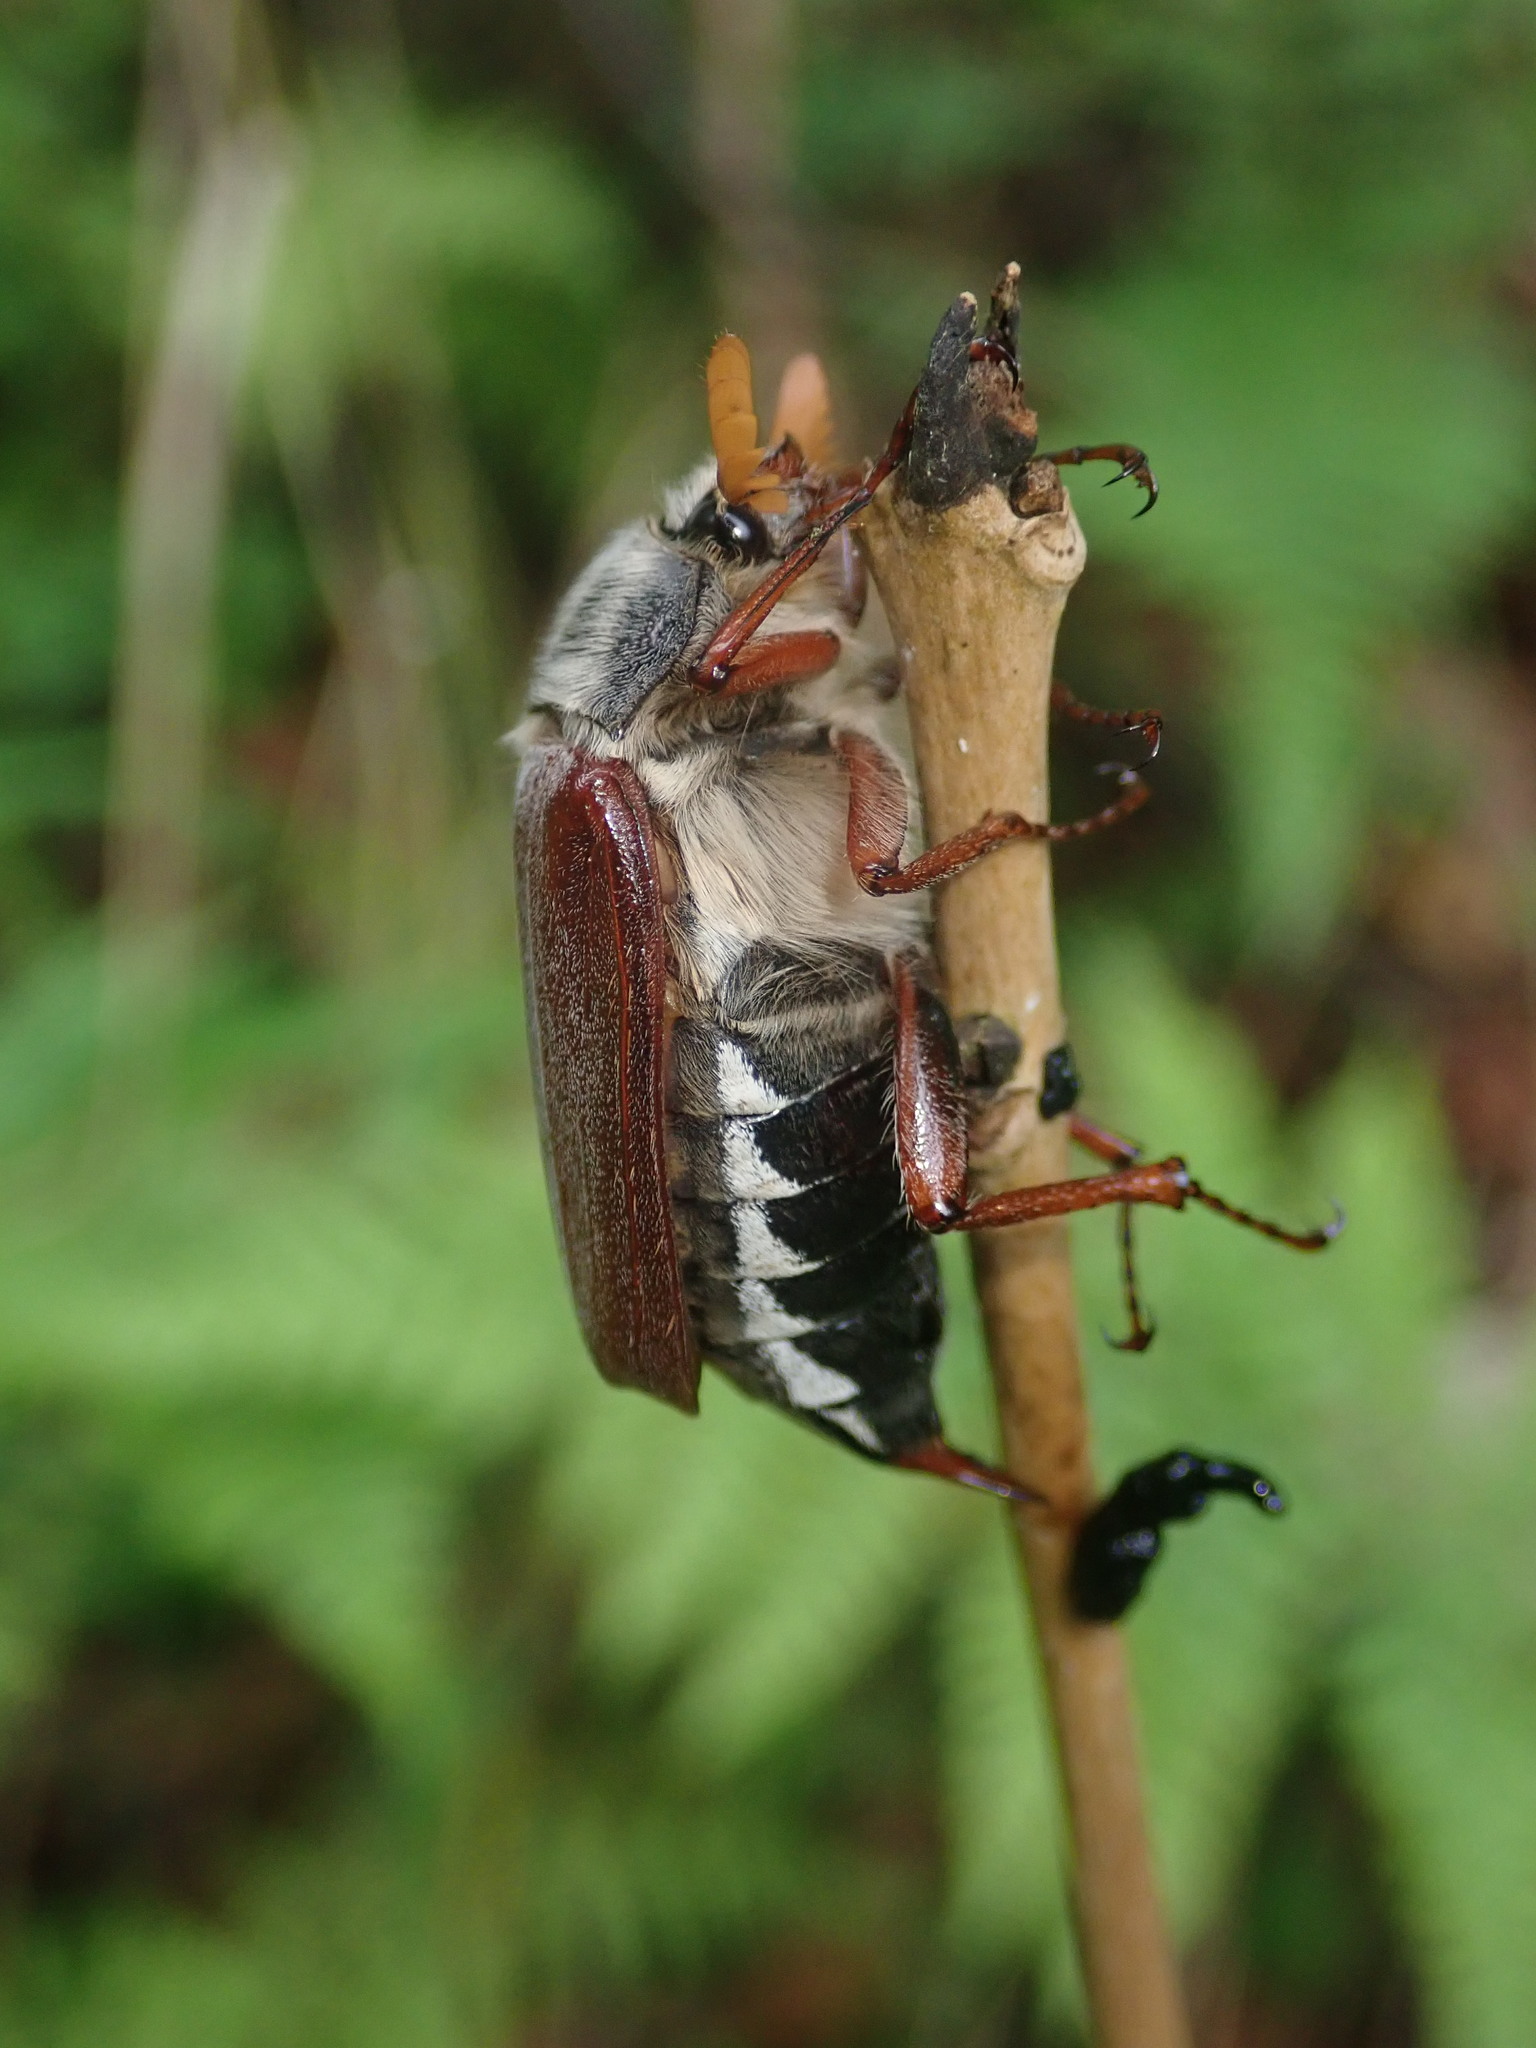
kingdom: Animalia
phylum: Arthropoda
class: Insecta
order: Coleoptera
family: Scarabaeidae
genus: Melolontha
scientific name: Melolontha melolontha
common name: Cockchafer maybeetle
